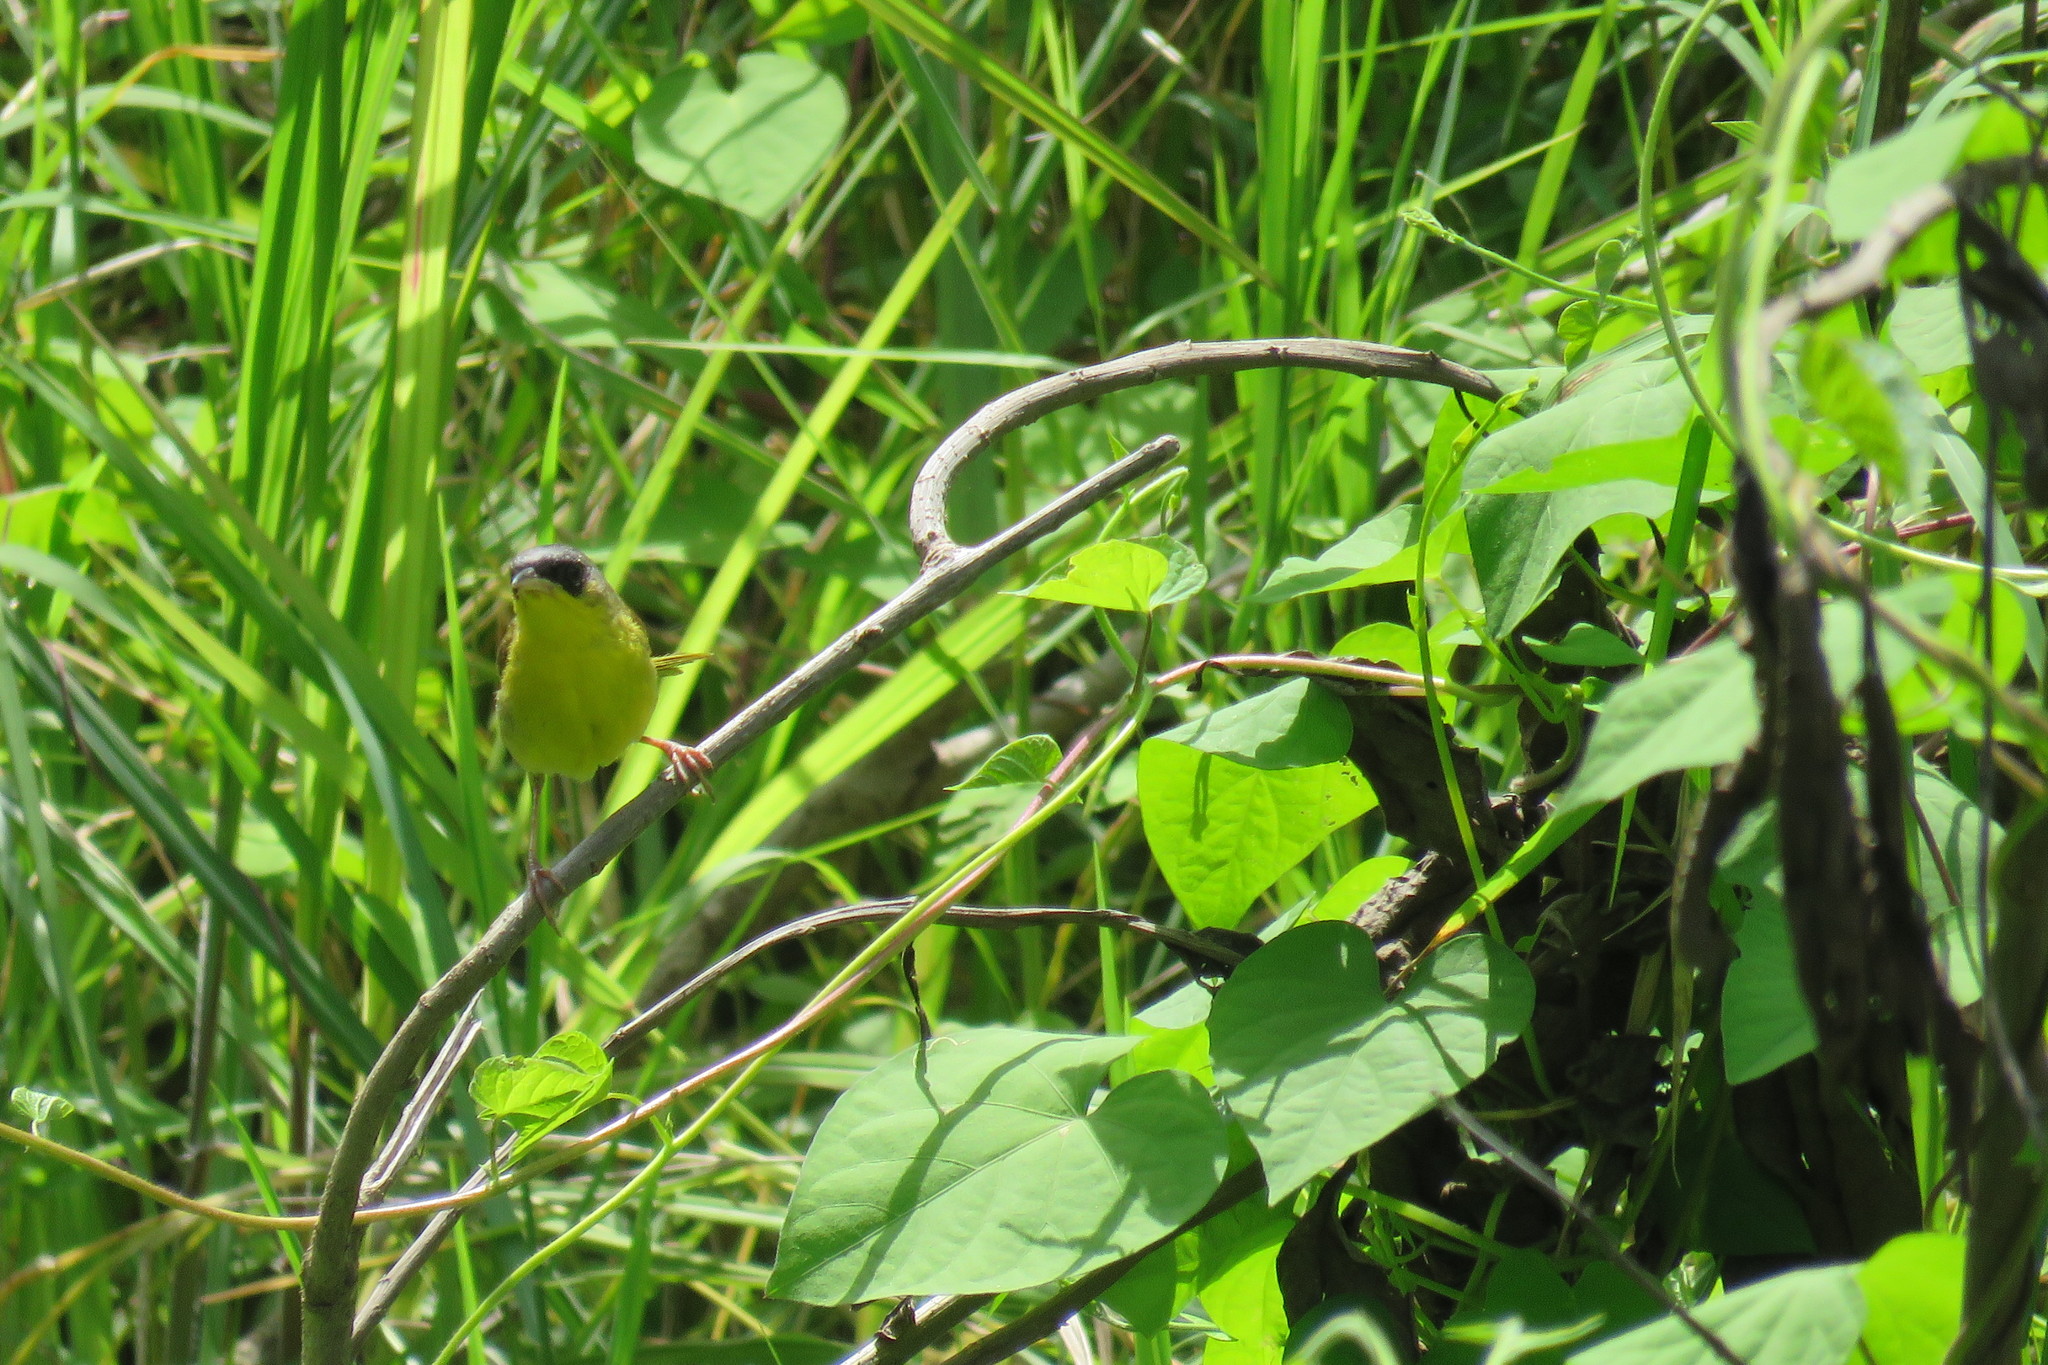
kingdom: Animalia
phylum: Chordata
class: Aves
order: Passeriformes
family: Parulidae
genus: Geothlypis
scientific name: Geothlypis poliocephala
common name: Gray-crowned yellowthroat
